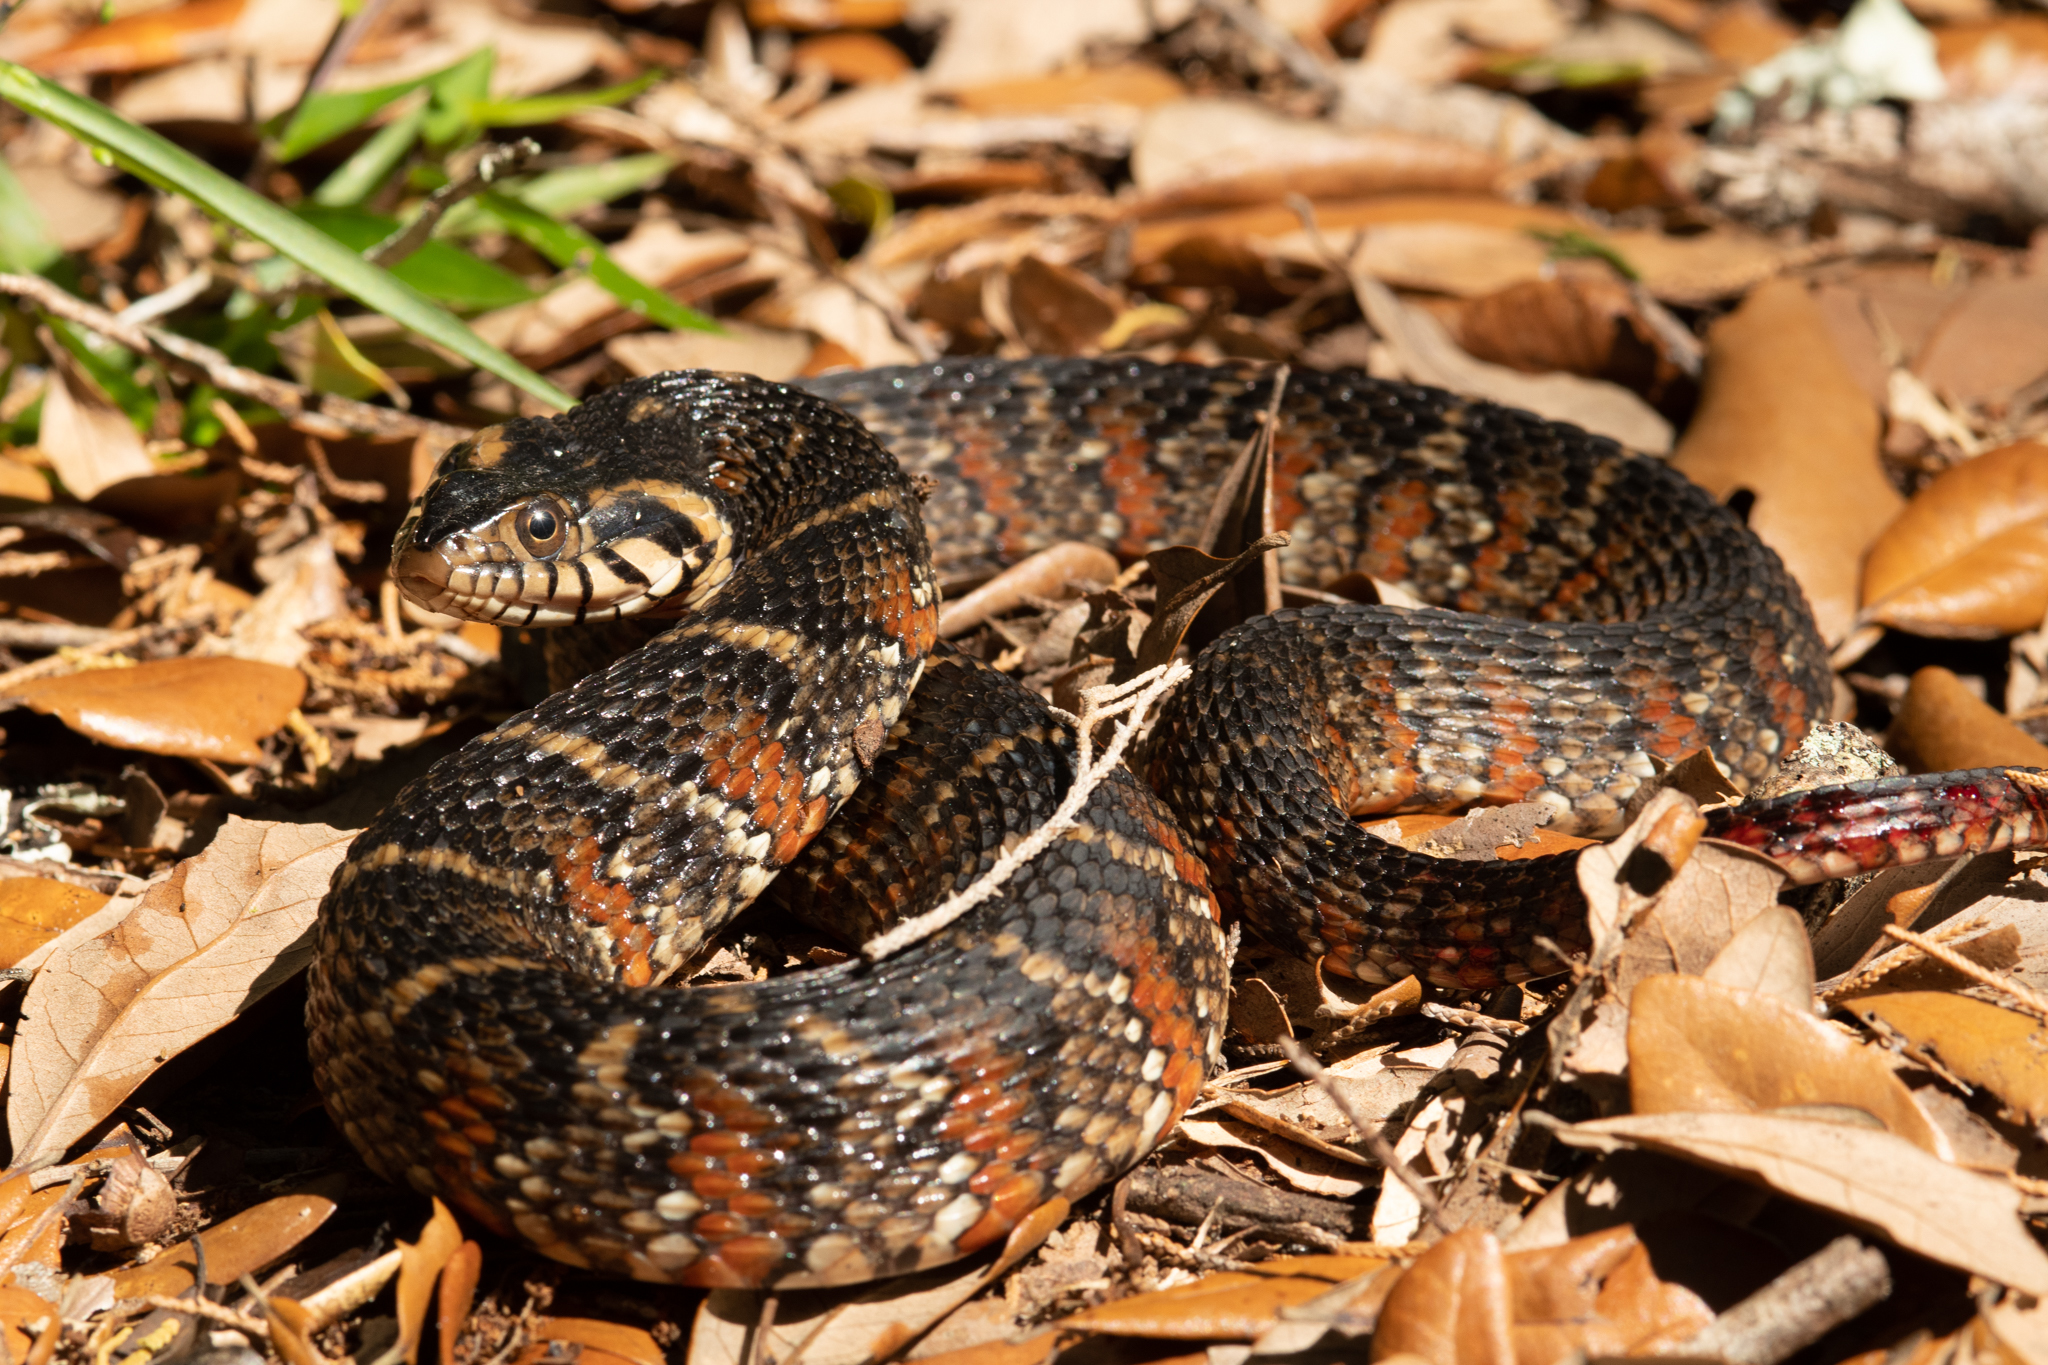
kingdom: Animalia
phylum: Chordata
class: Squamata
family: Colubridae
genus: Nerodia
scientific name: Nerodia fasciata
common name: Southern water snake
